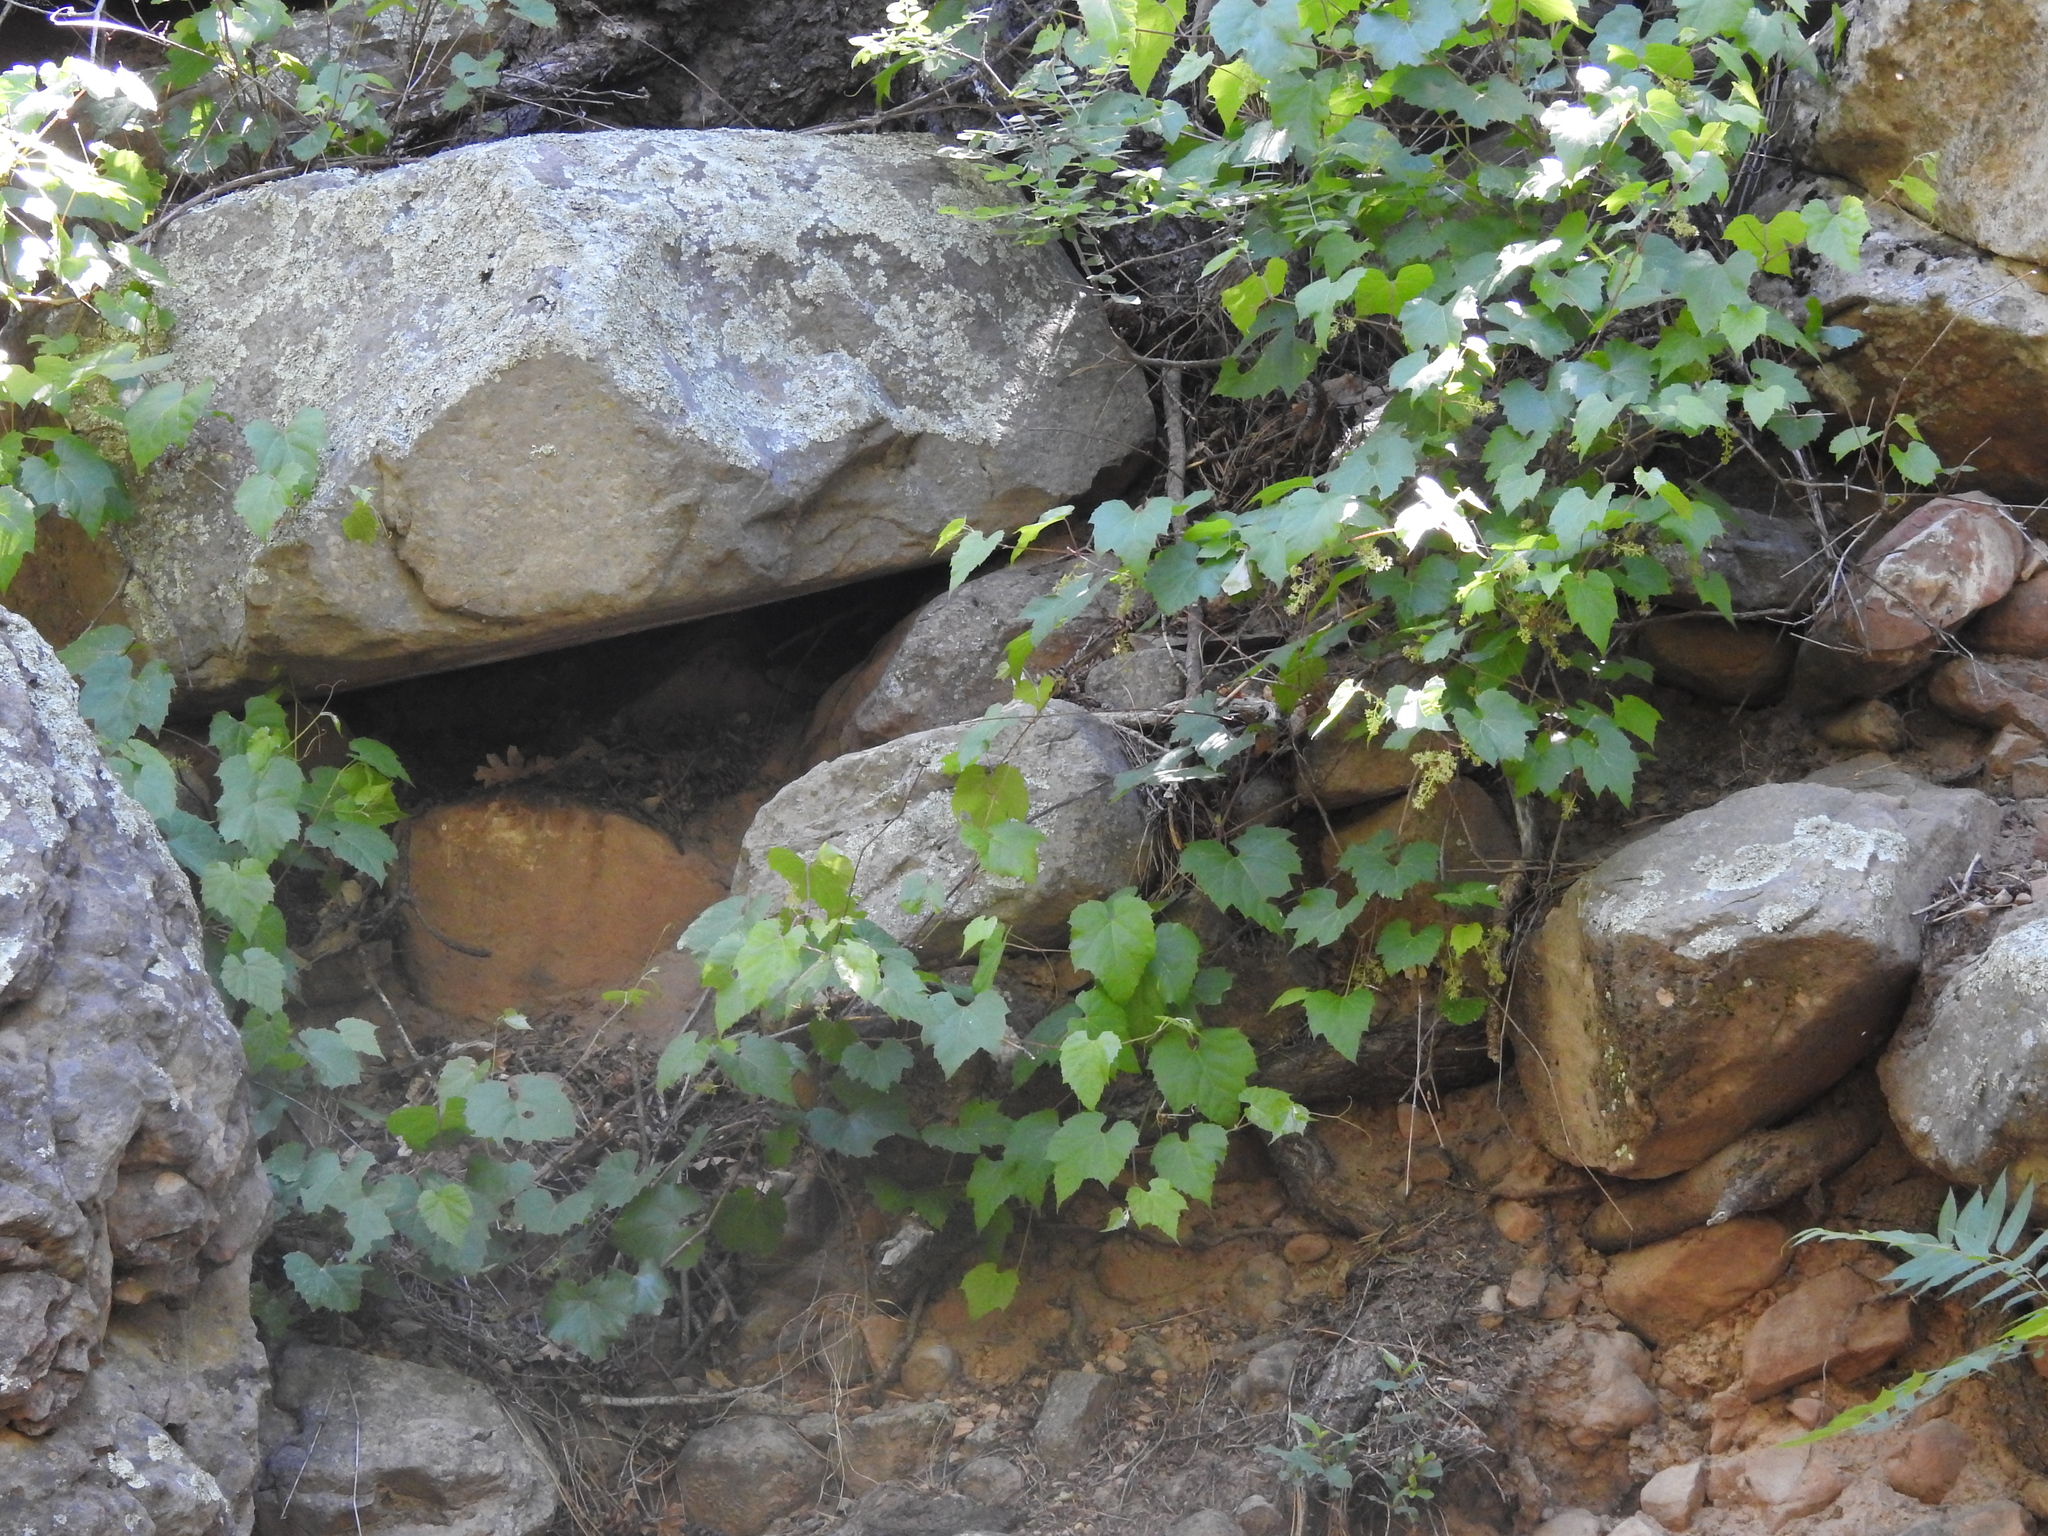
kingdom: Plantae
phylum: Tracheophyta
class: Magnoliopsida
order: Vitales
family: Vitaceae
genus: Vitis
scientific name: Vitis arizonica
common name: Canyon grape
